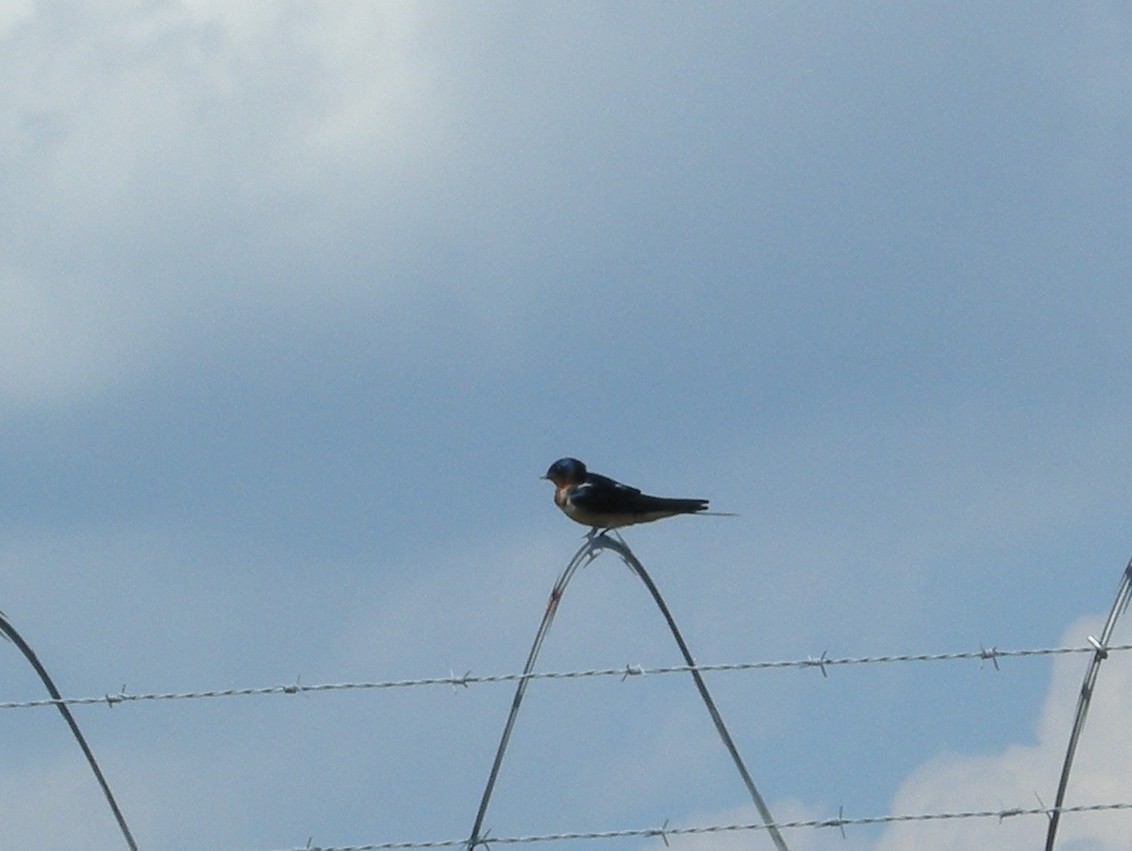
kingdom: Animalia
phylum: Chordata
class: Aves
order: Passeriformes
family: Hirundinidae
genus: Hirundo
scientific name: Hirundo rustica
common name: Barn swallow
